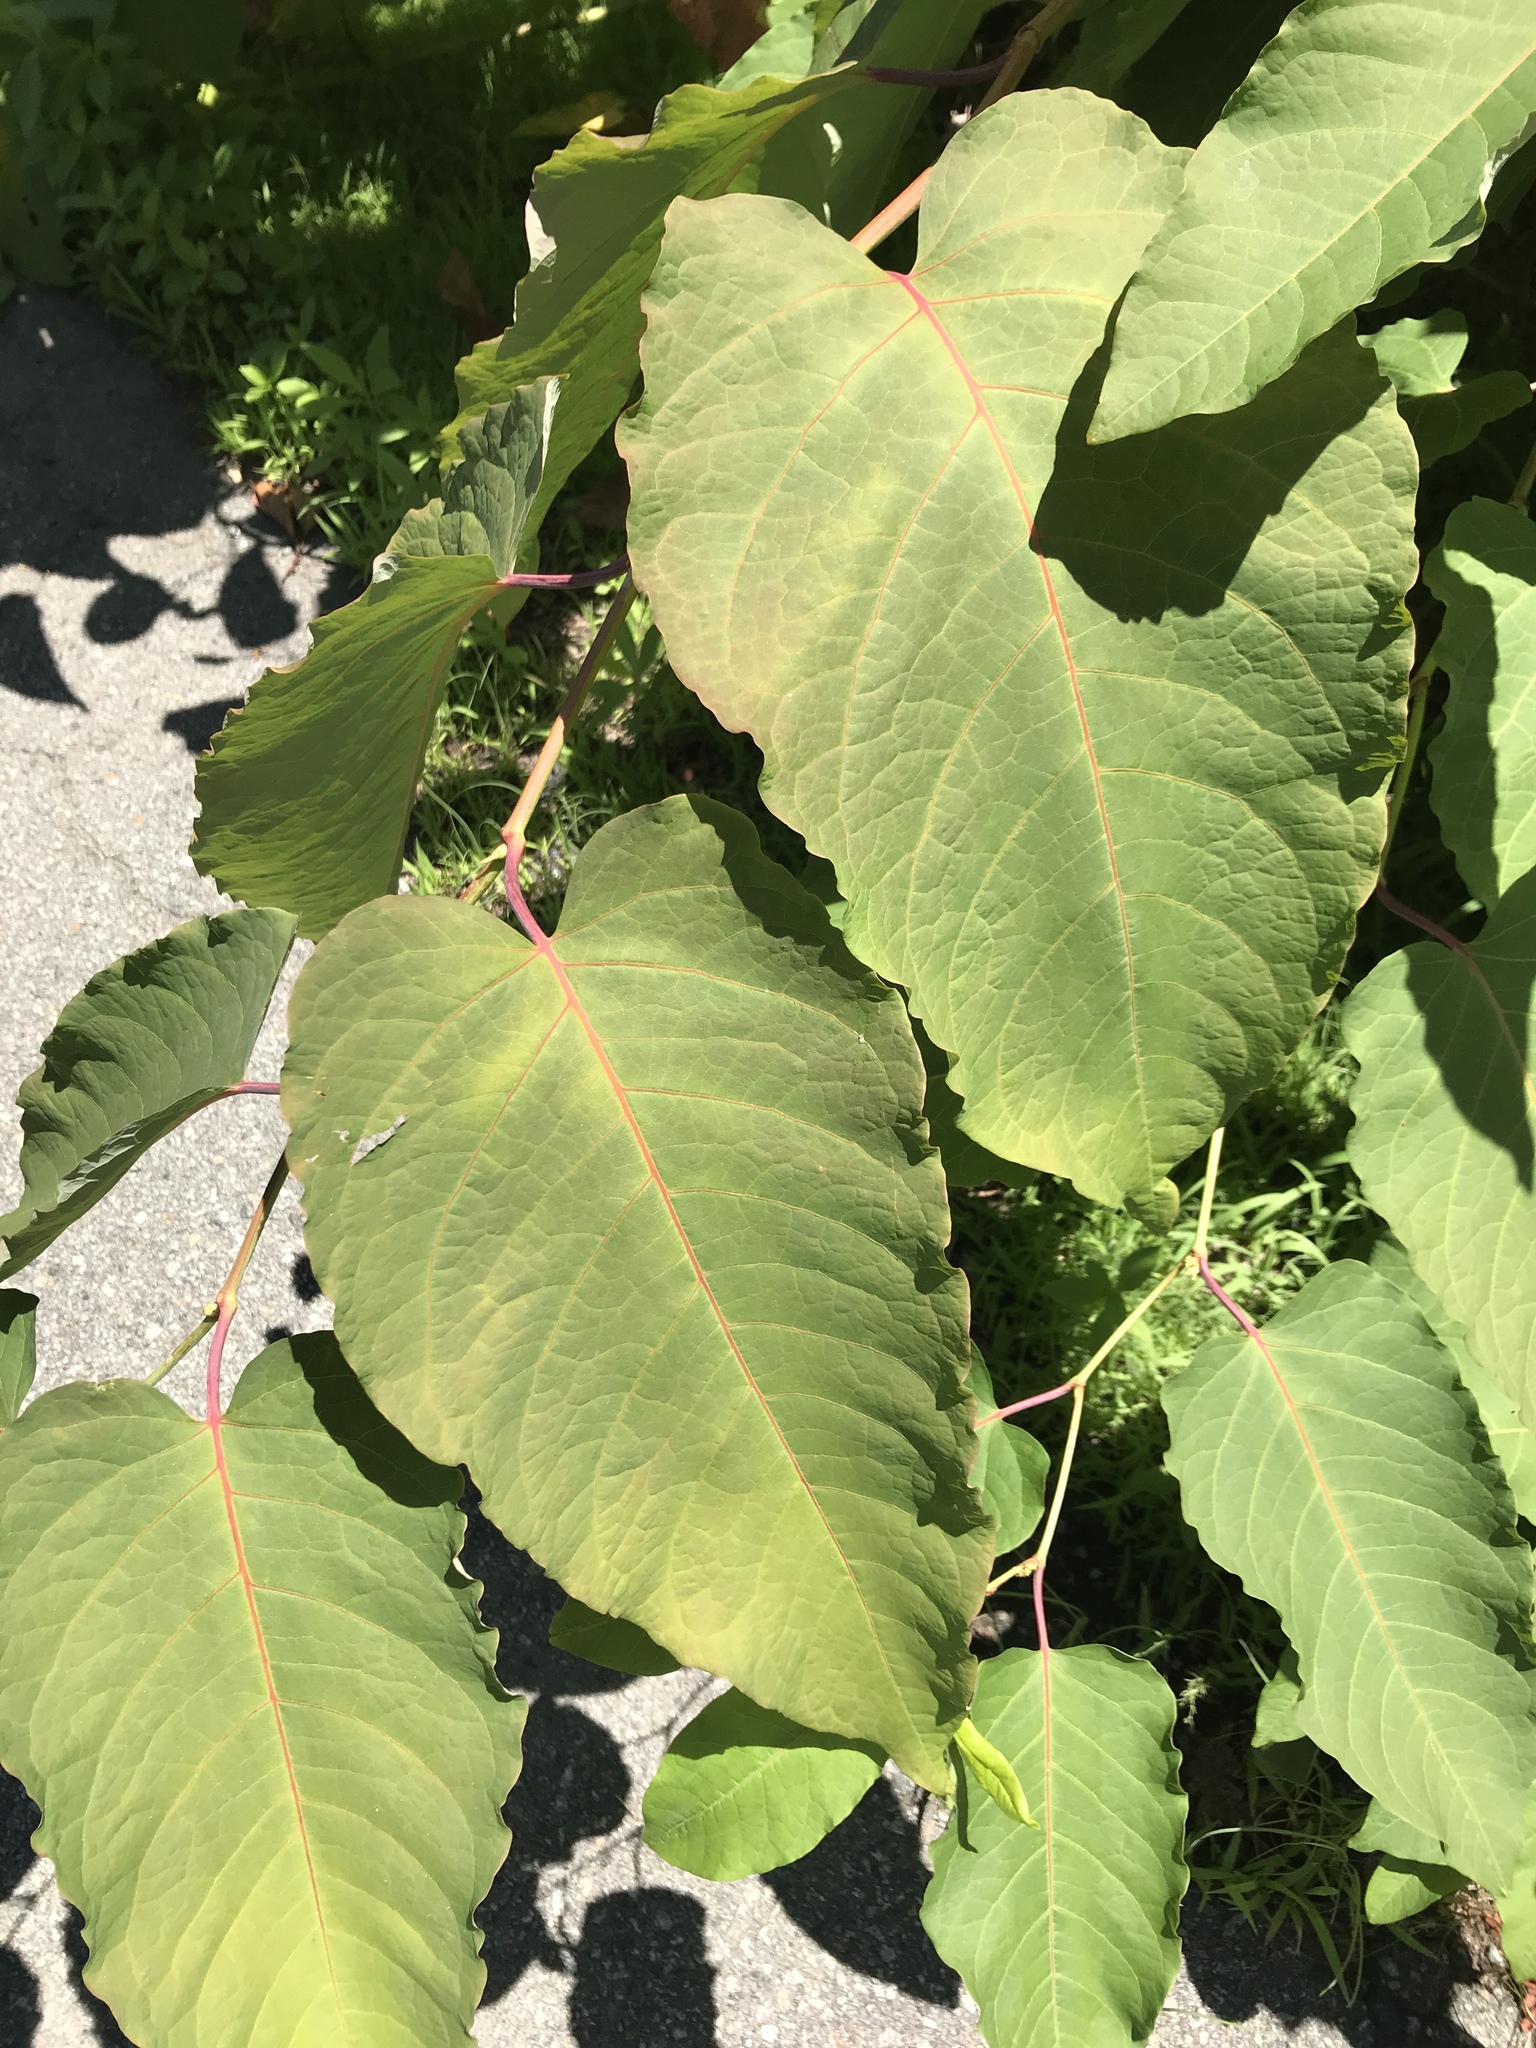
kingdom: Plantae
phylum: Tracheophyta
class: Magnoliopsida
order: Caryophyllales
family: Polygonaceae
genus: Reynoutria
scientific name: Reynoutria sachalinensis
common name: Giant knotweed
